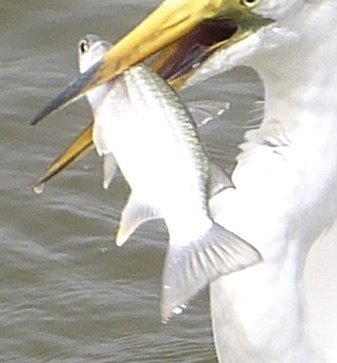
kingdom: Animalia
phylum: Chordata
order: Mugiliformes
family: Mugilidae
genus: Parachelon
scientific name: Parachelon grandisquamis
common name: Largescaled mullet
